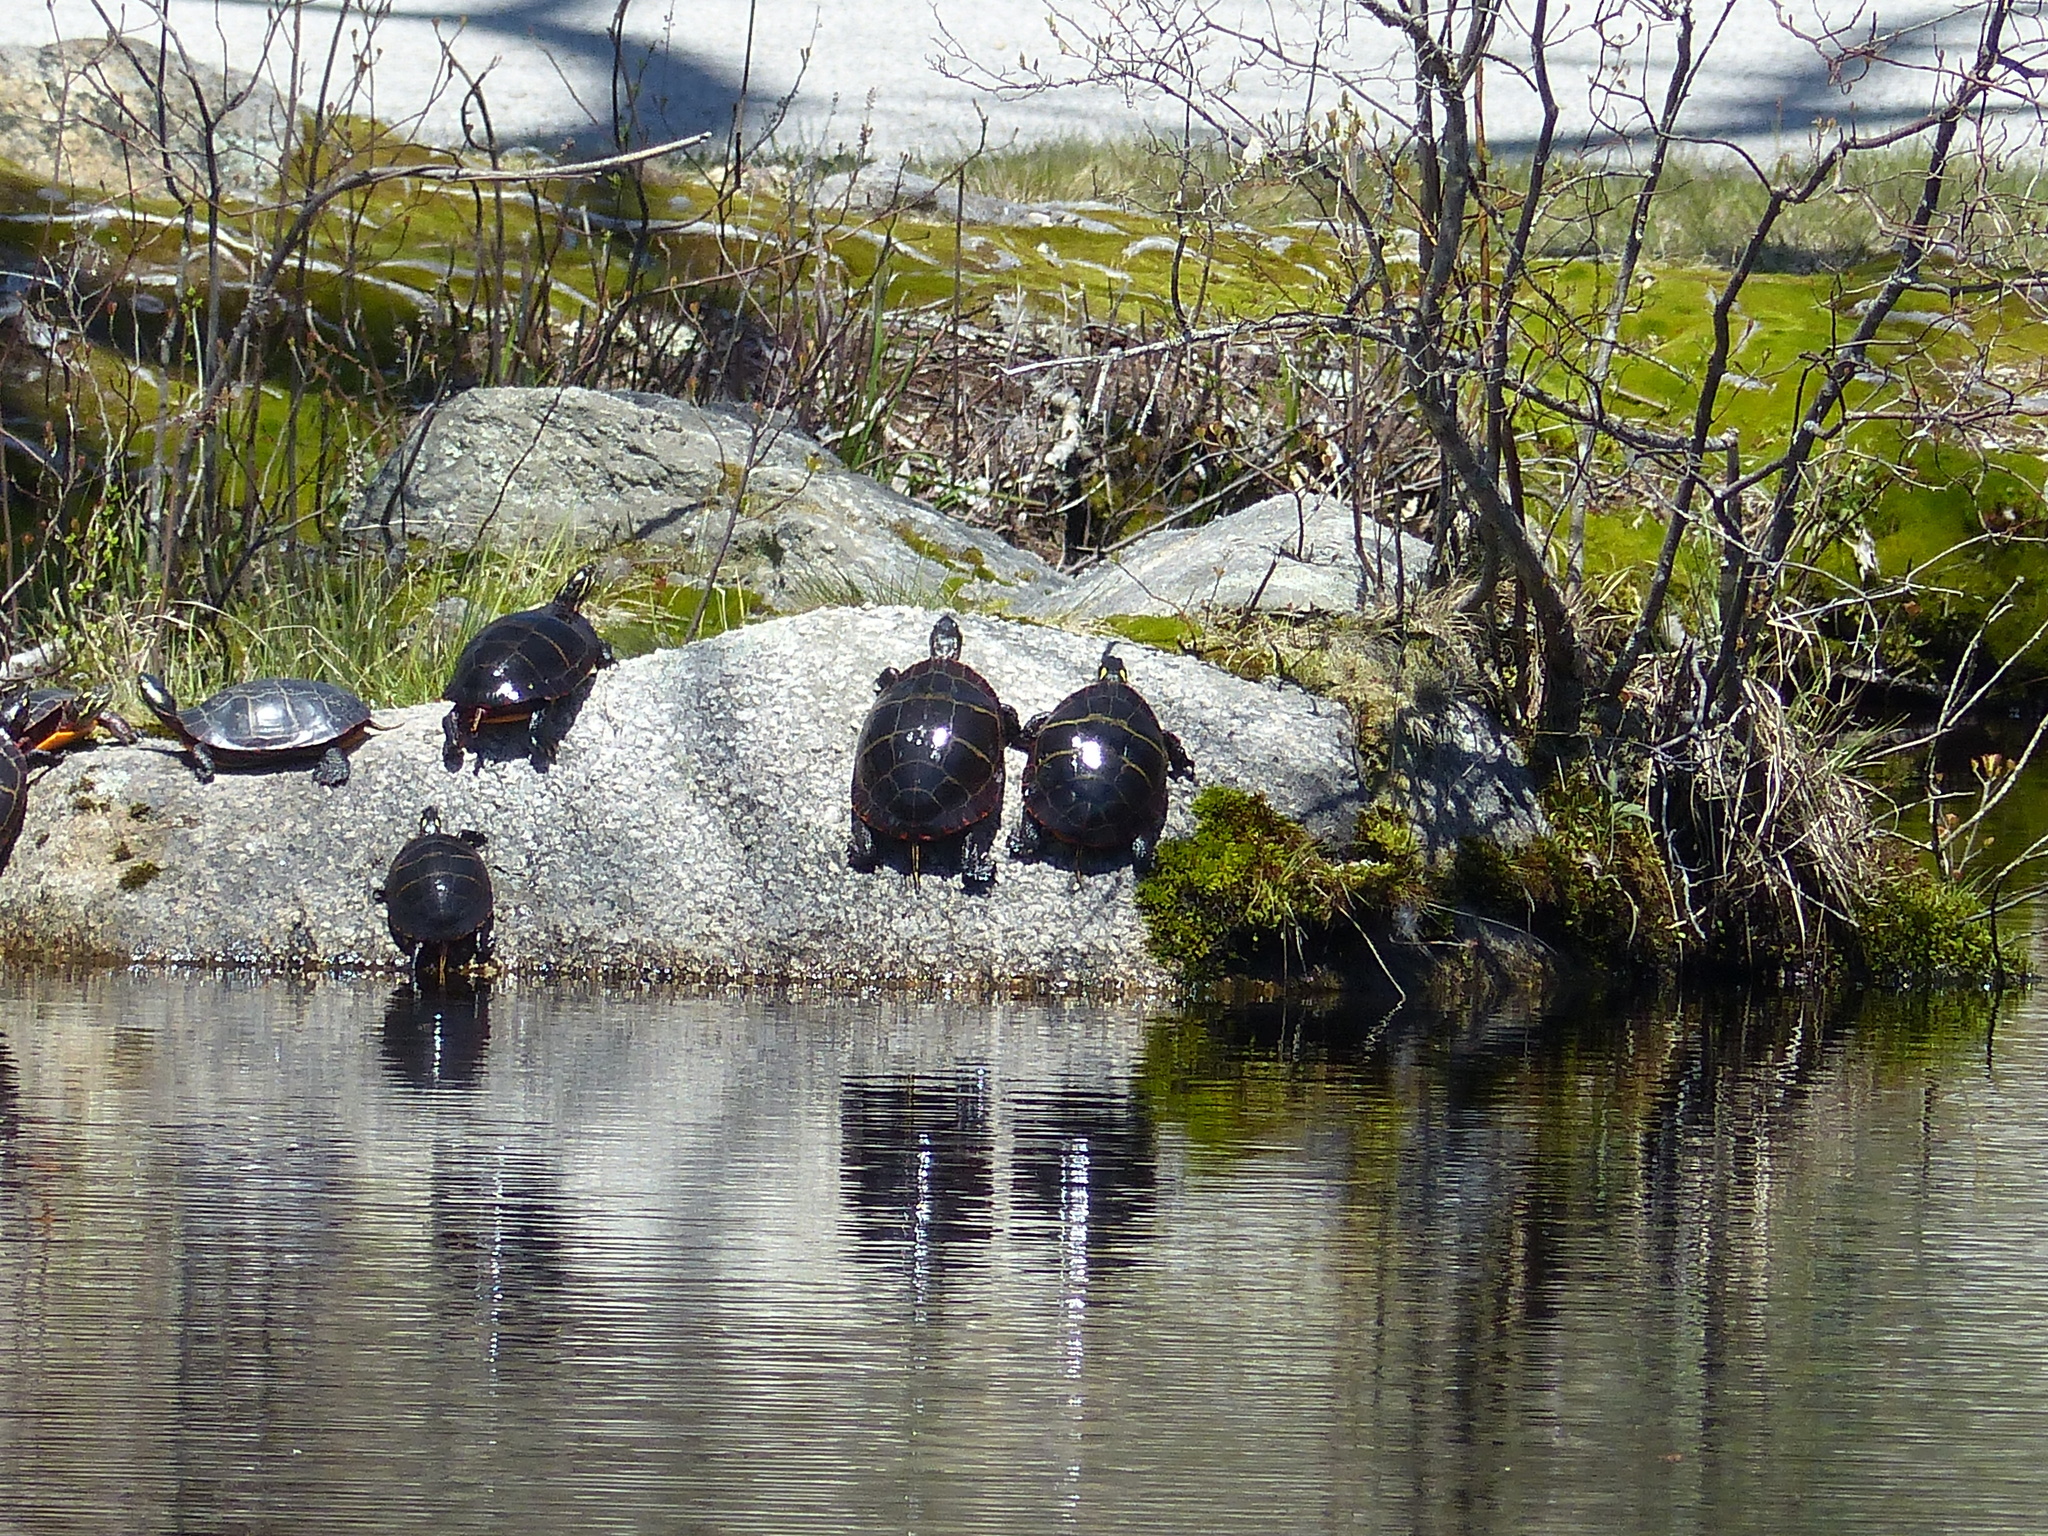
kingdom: Animalia
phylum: Chordata
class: Testudines
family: Emydidae
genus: Chrysemys
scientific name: Chrysemys picta
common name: Painted turtle
